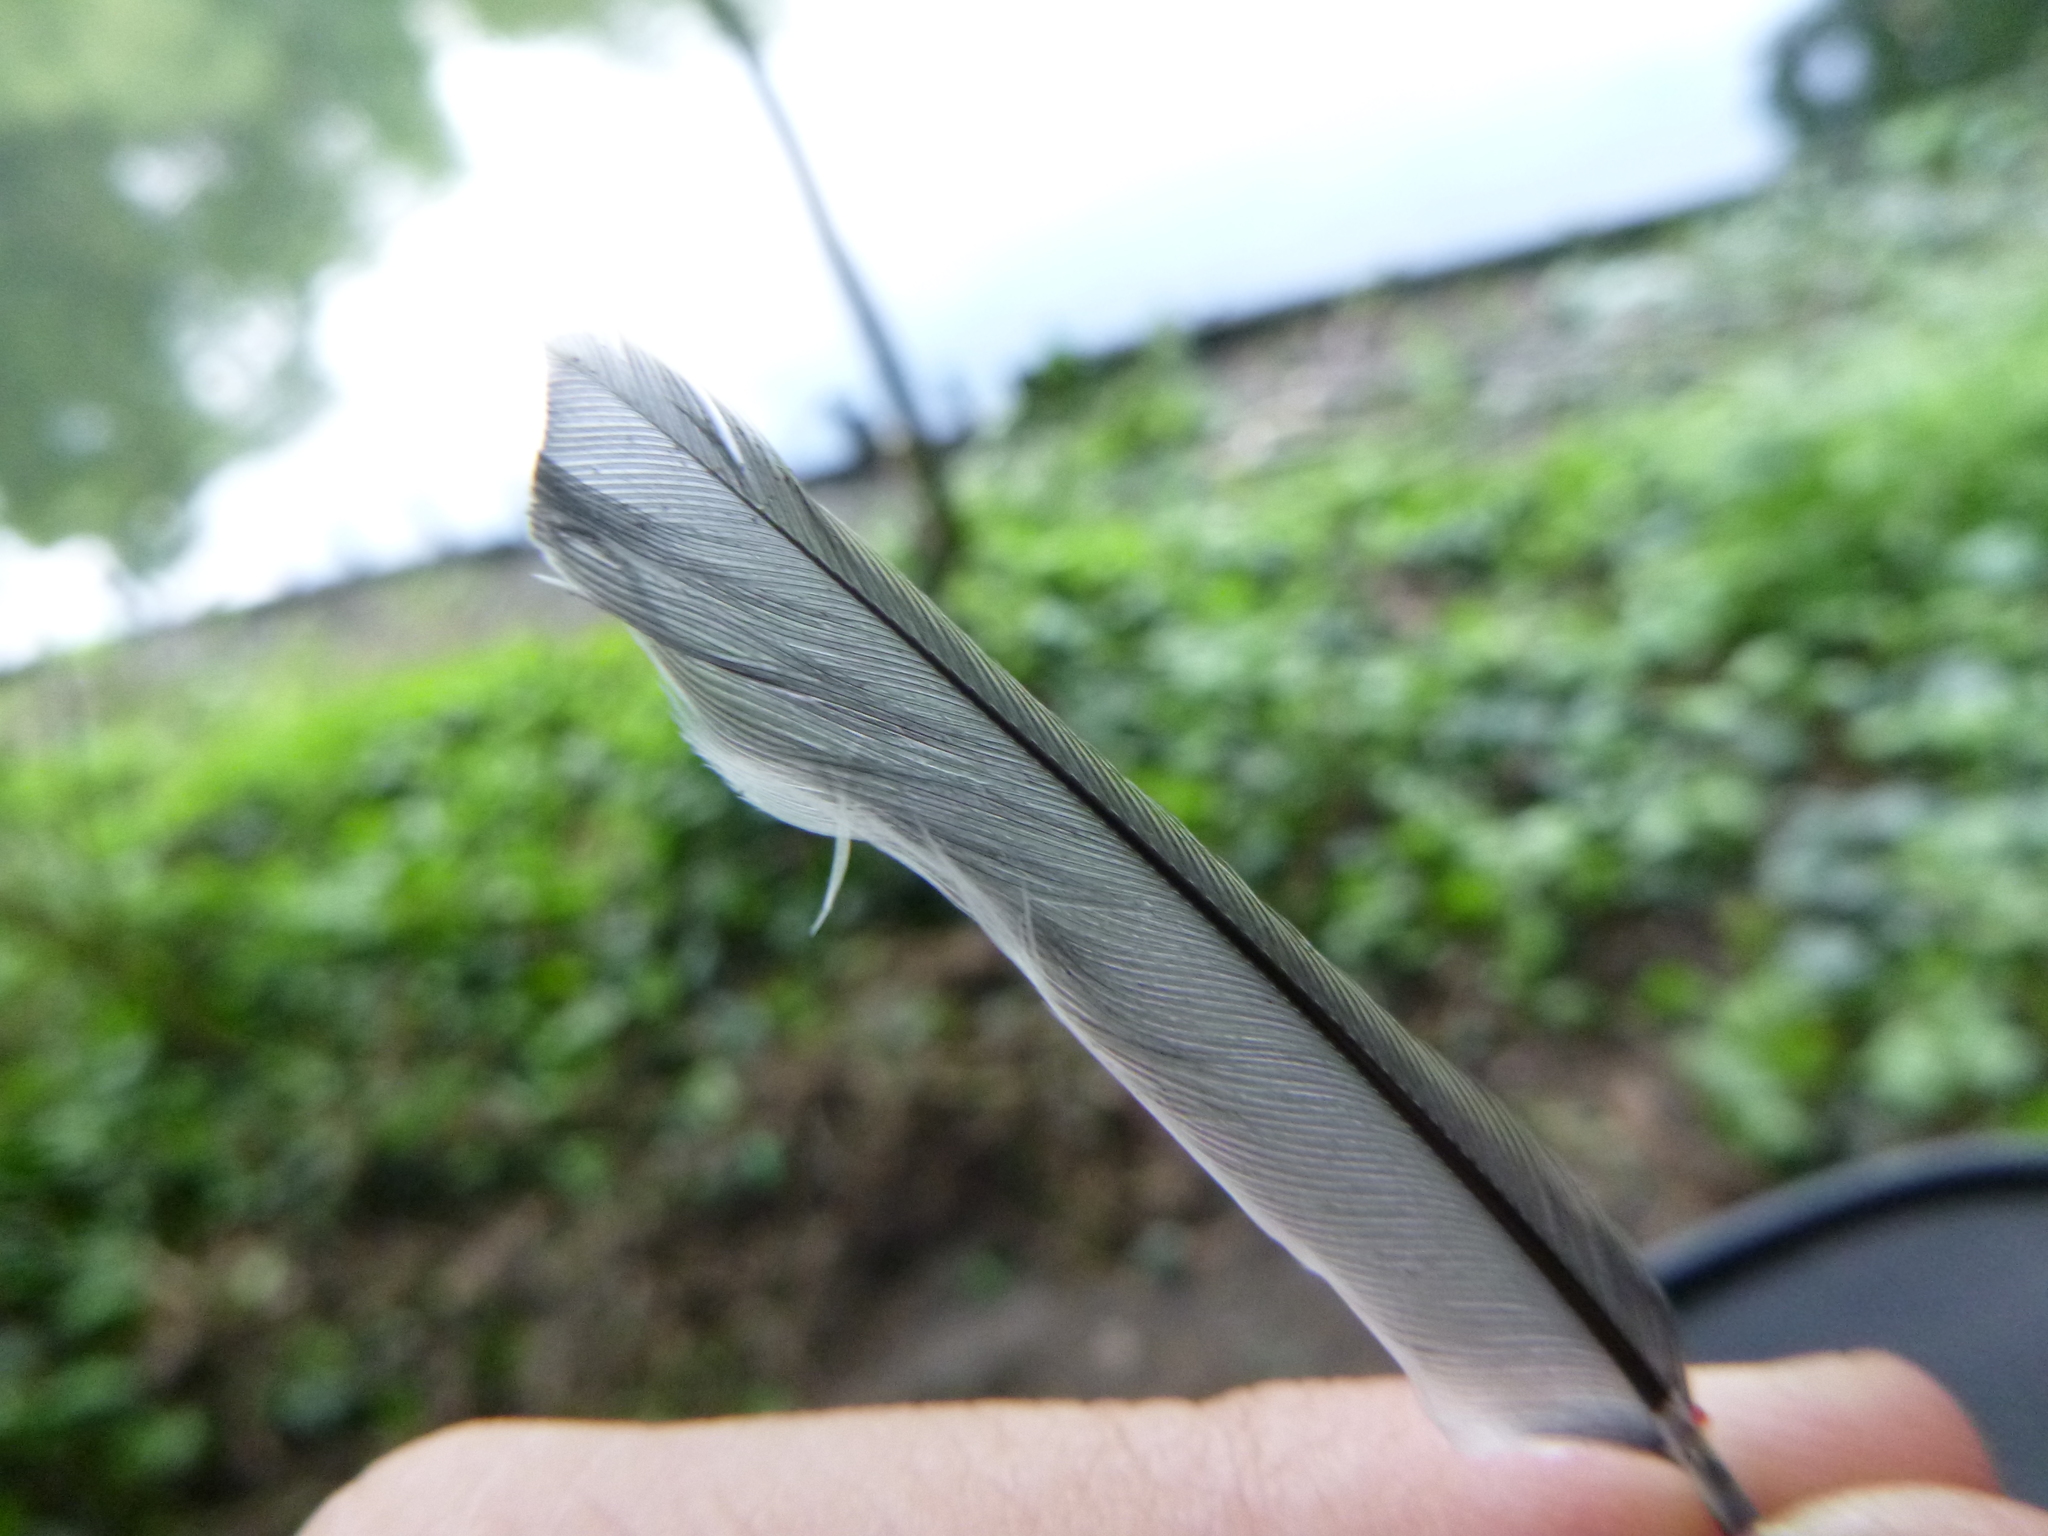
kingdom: Animalia
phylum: Chordata
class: Aves
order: Passeriformes
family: Paridae
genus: Parus
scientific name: Parus major
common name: Great tit
